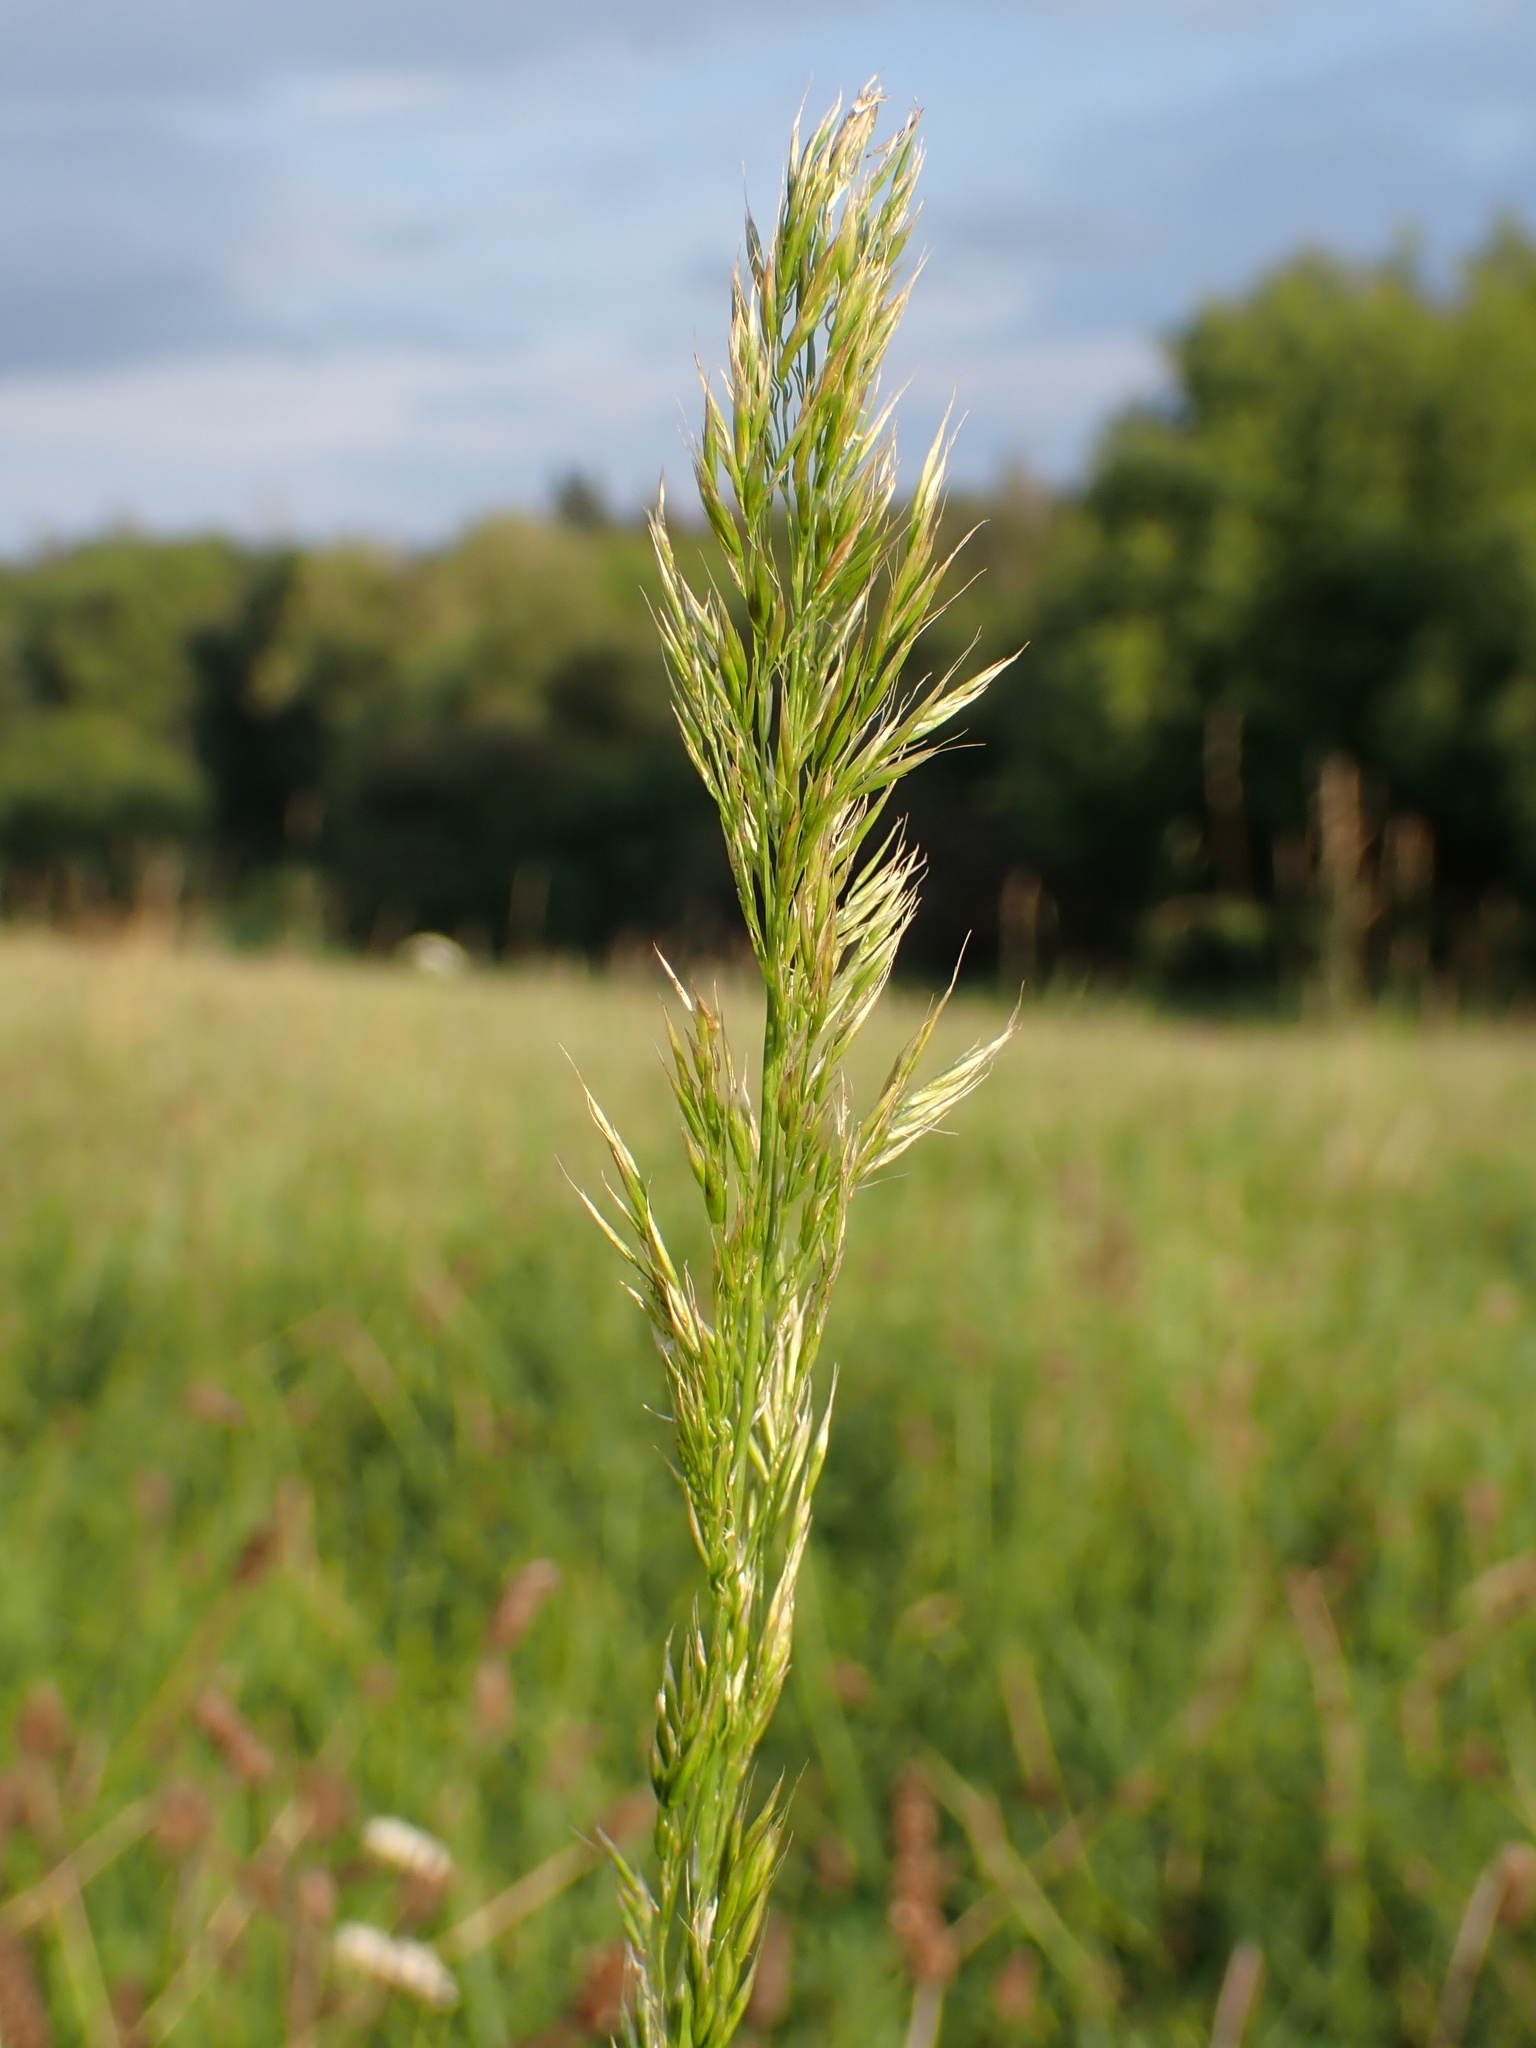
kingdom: Plantae
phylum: Tracheophyta
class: Liliopsida
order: Poales
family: Poaceae
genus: Trisetum
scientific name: Trisetum flavescens
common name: Yellow oat-grass
